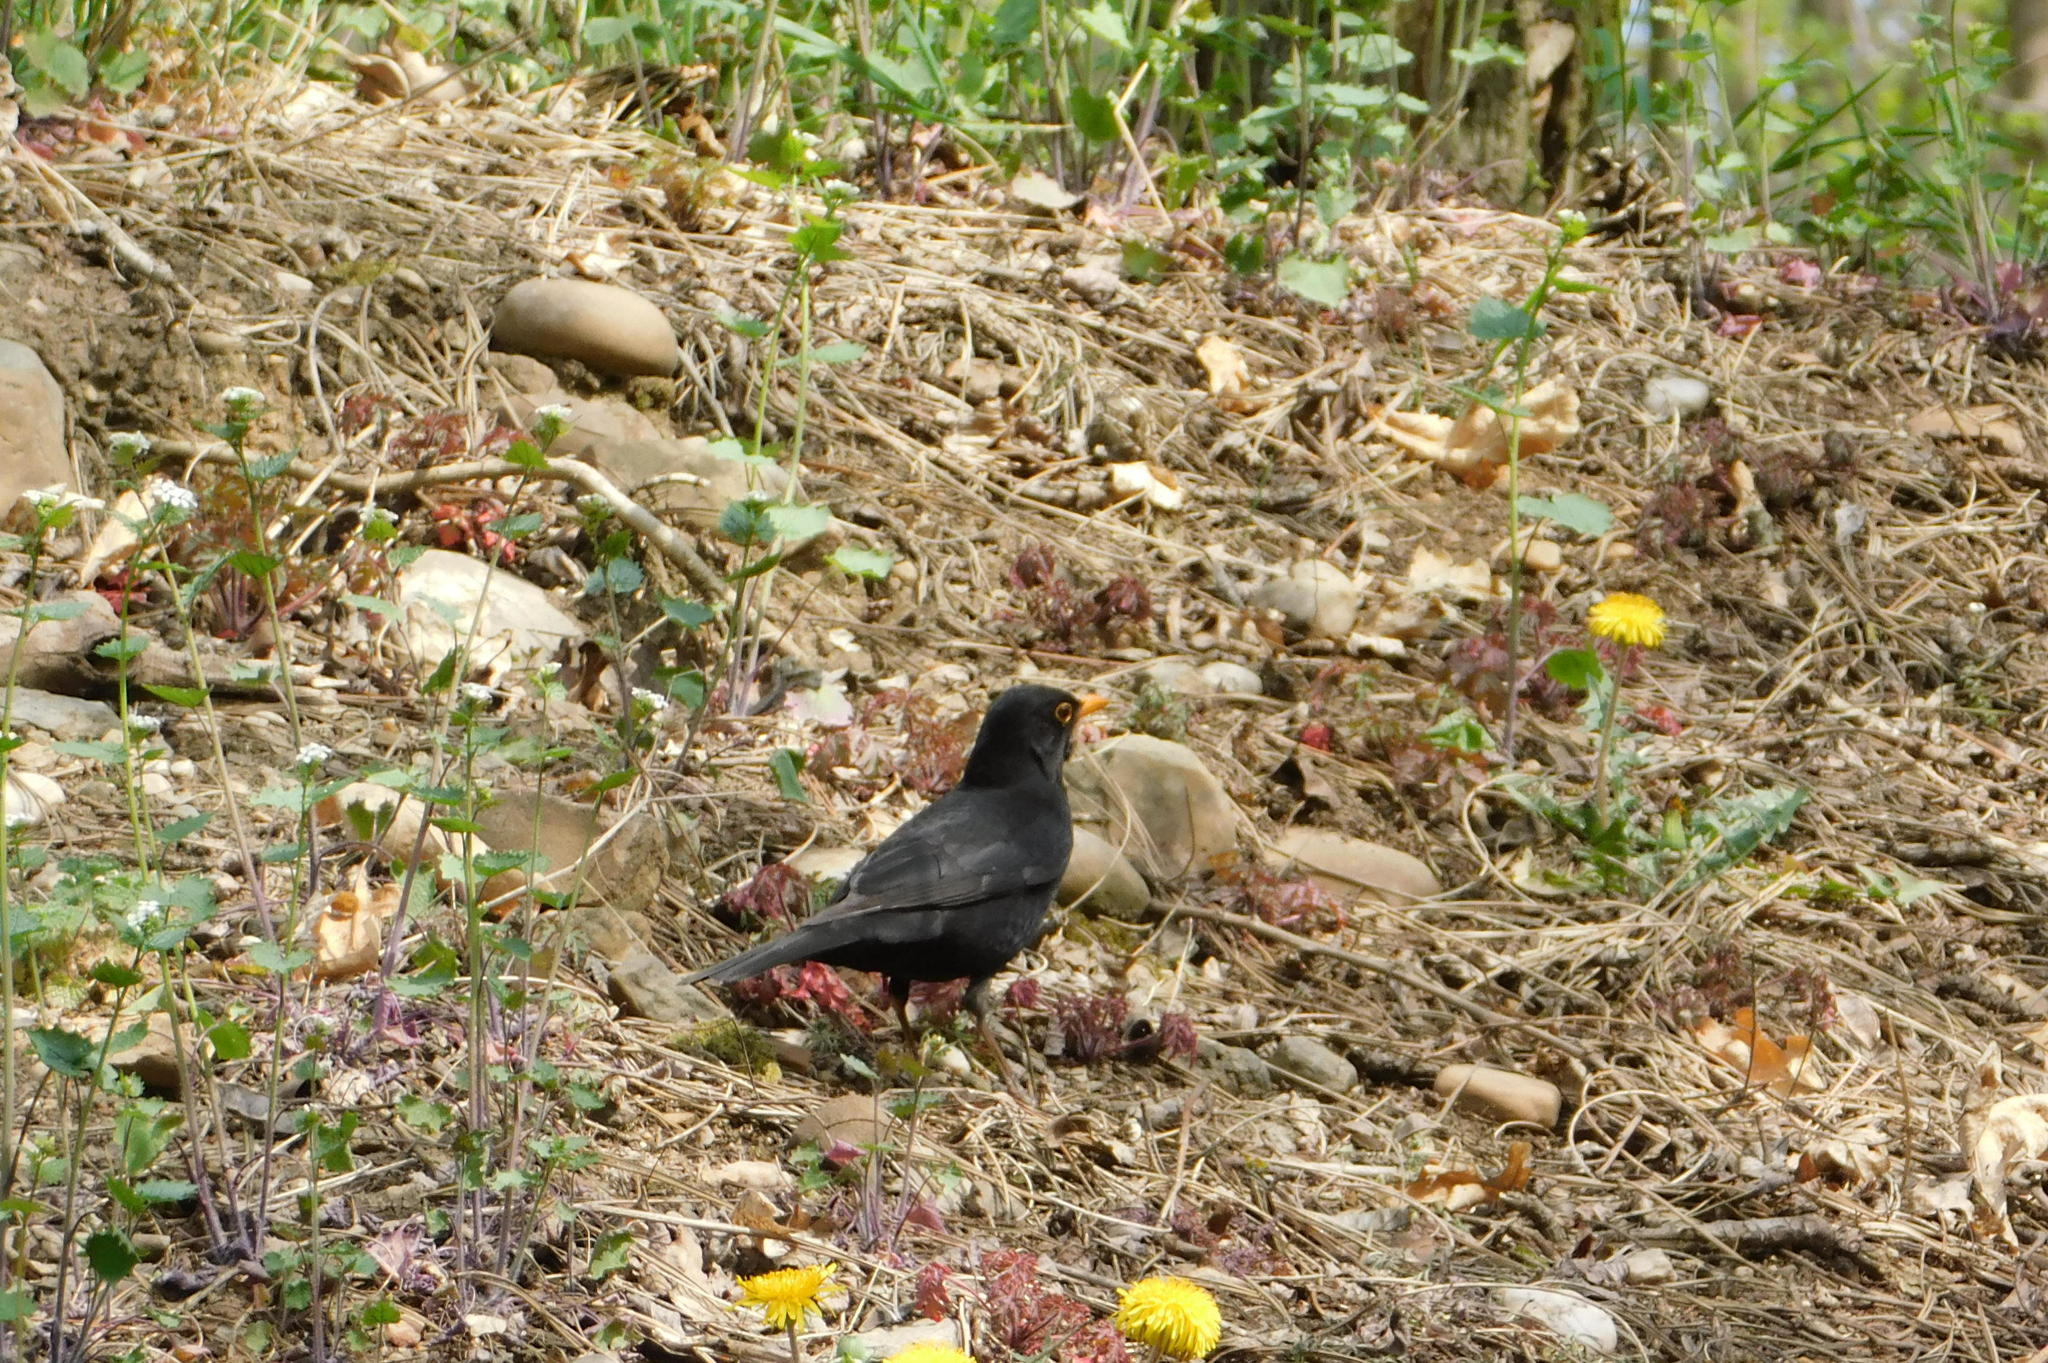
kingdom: Animalia
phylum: Chordata
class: Aves
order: Passeriformes
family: Turdidae
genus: Turdus
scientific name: Turdus merula
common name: Common blackbird
